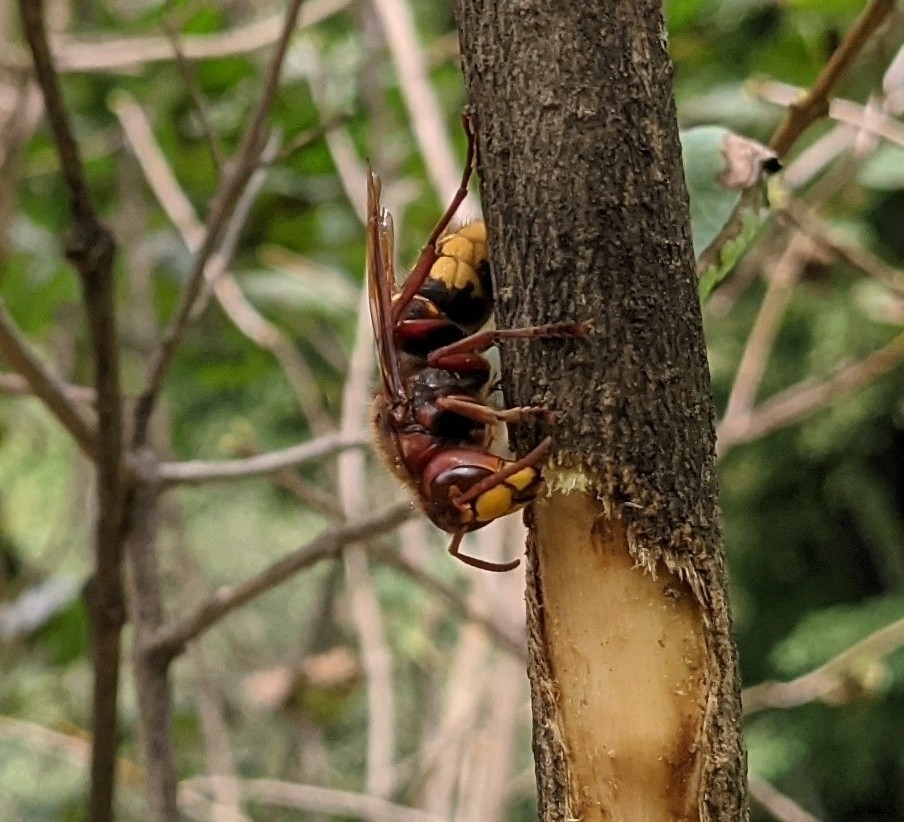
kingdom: Animalia
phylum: Arthropoda
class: Insecta
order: Hymenoptera
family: Vespidae
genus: Vespa
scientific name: Vespa crabro
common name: Hornet
